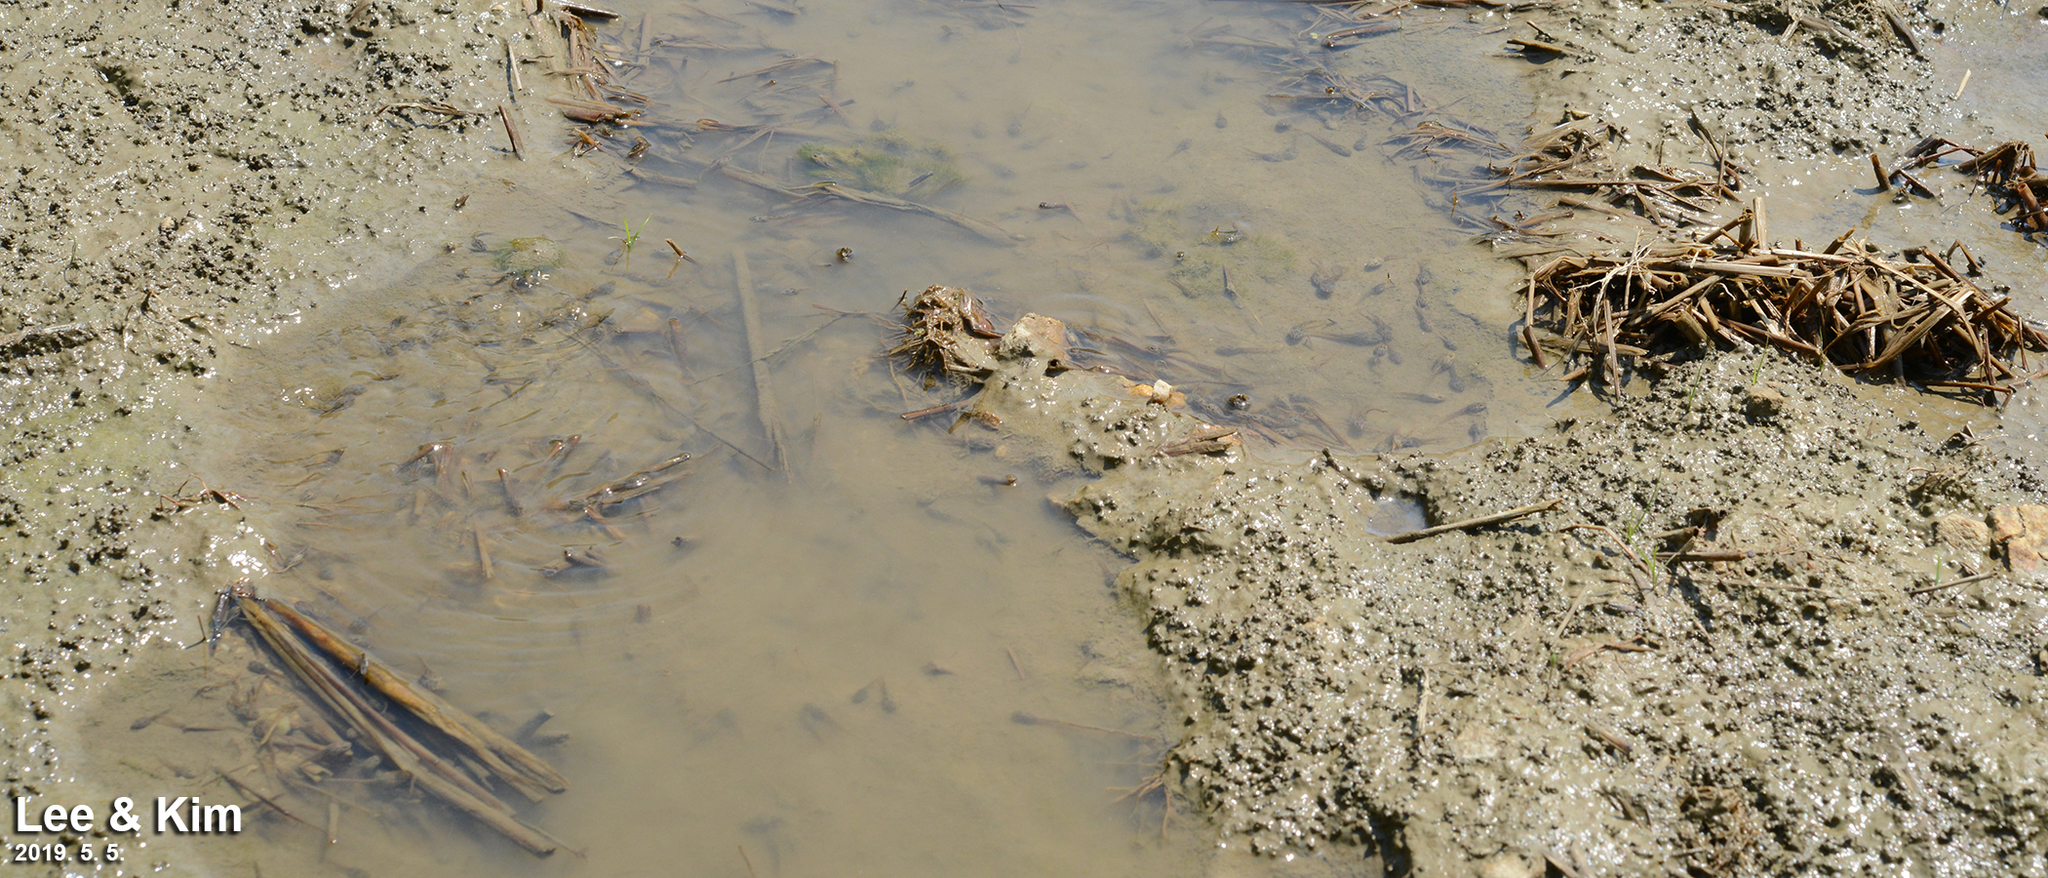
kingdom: Animalia
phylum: Chordata
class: Amphibia
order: Anura
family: Ranidae
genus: Rana
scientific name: Rana coreana
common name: Korean brown frog
